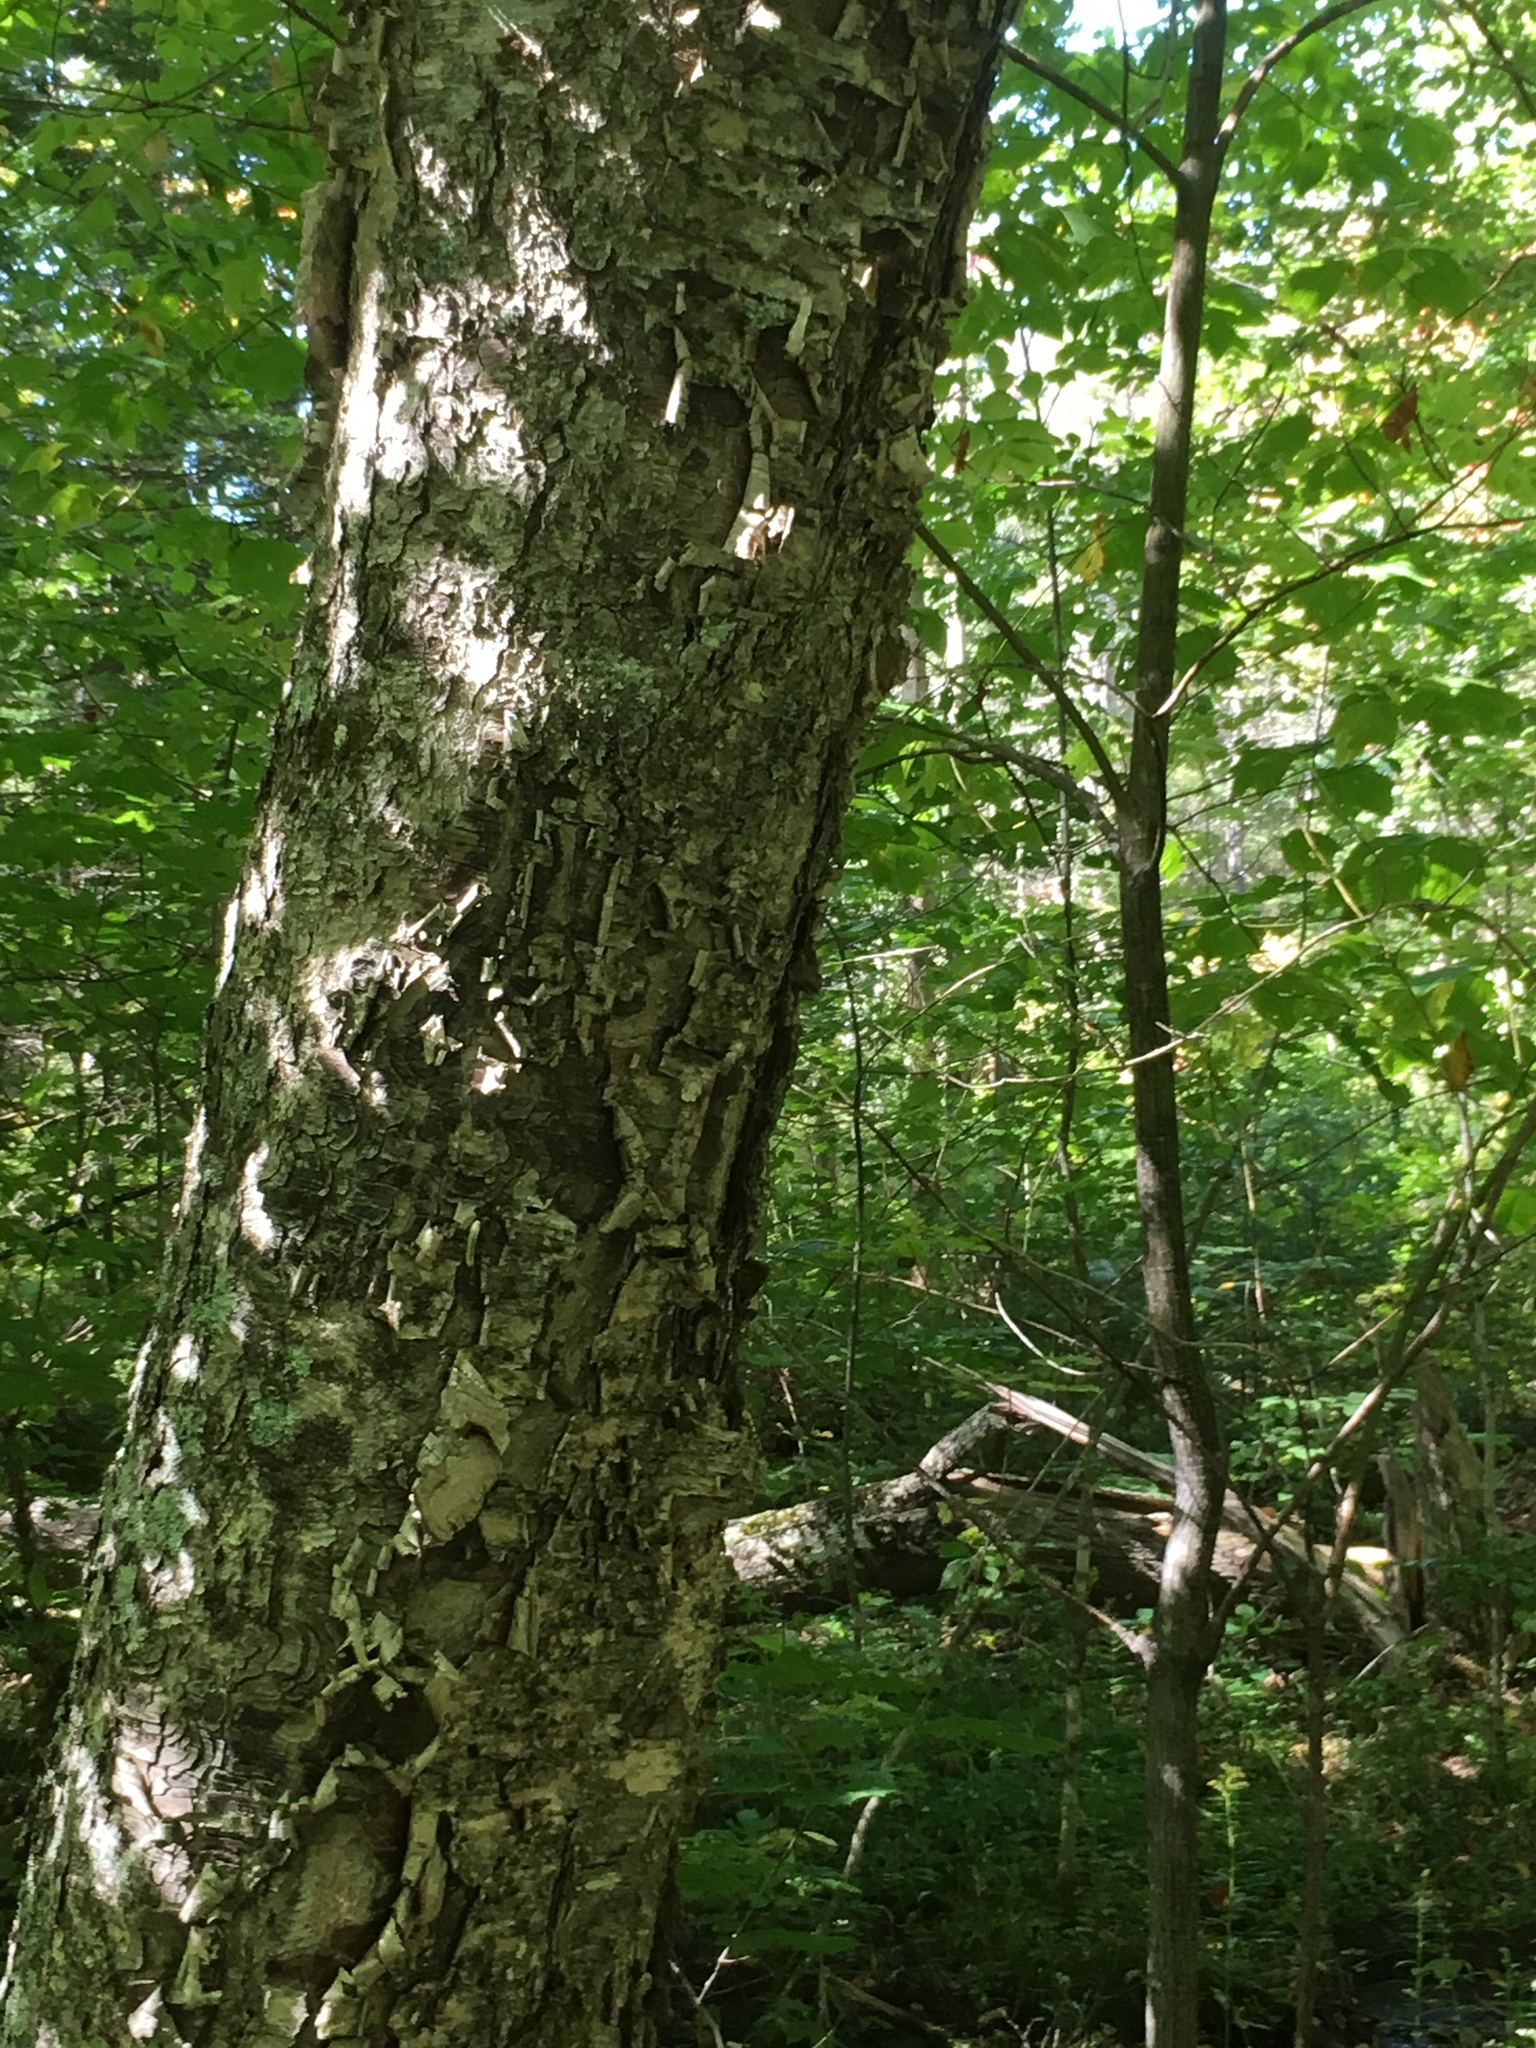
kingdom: Plantae
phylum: Tracheophyta
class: Magnoliopsida
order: Fagales
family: Betulaceae
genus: Betula
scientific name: Betula alleghaniensis
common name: Yellow birch
